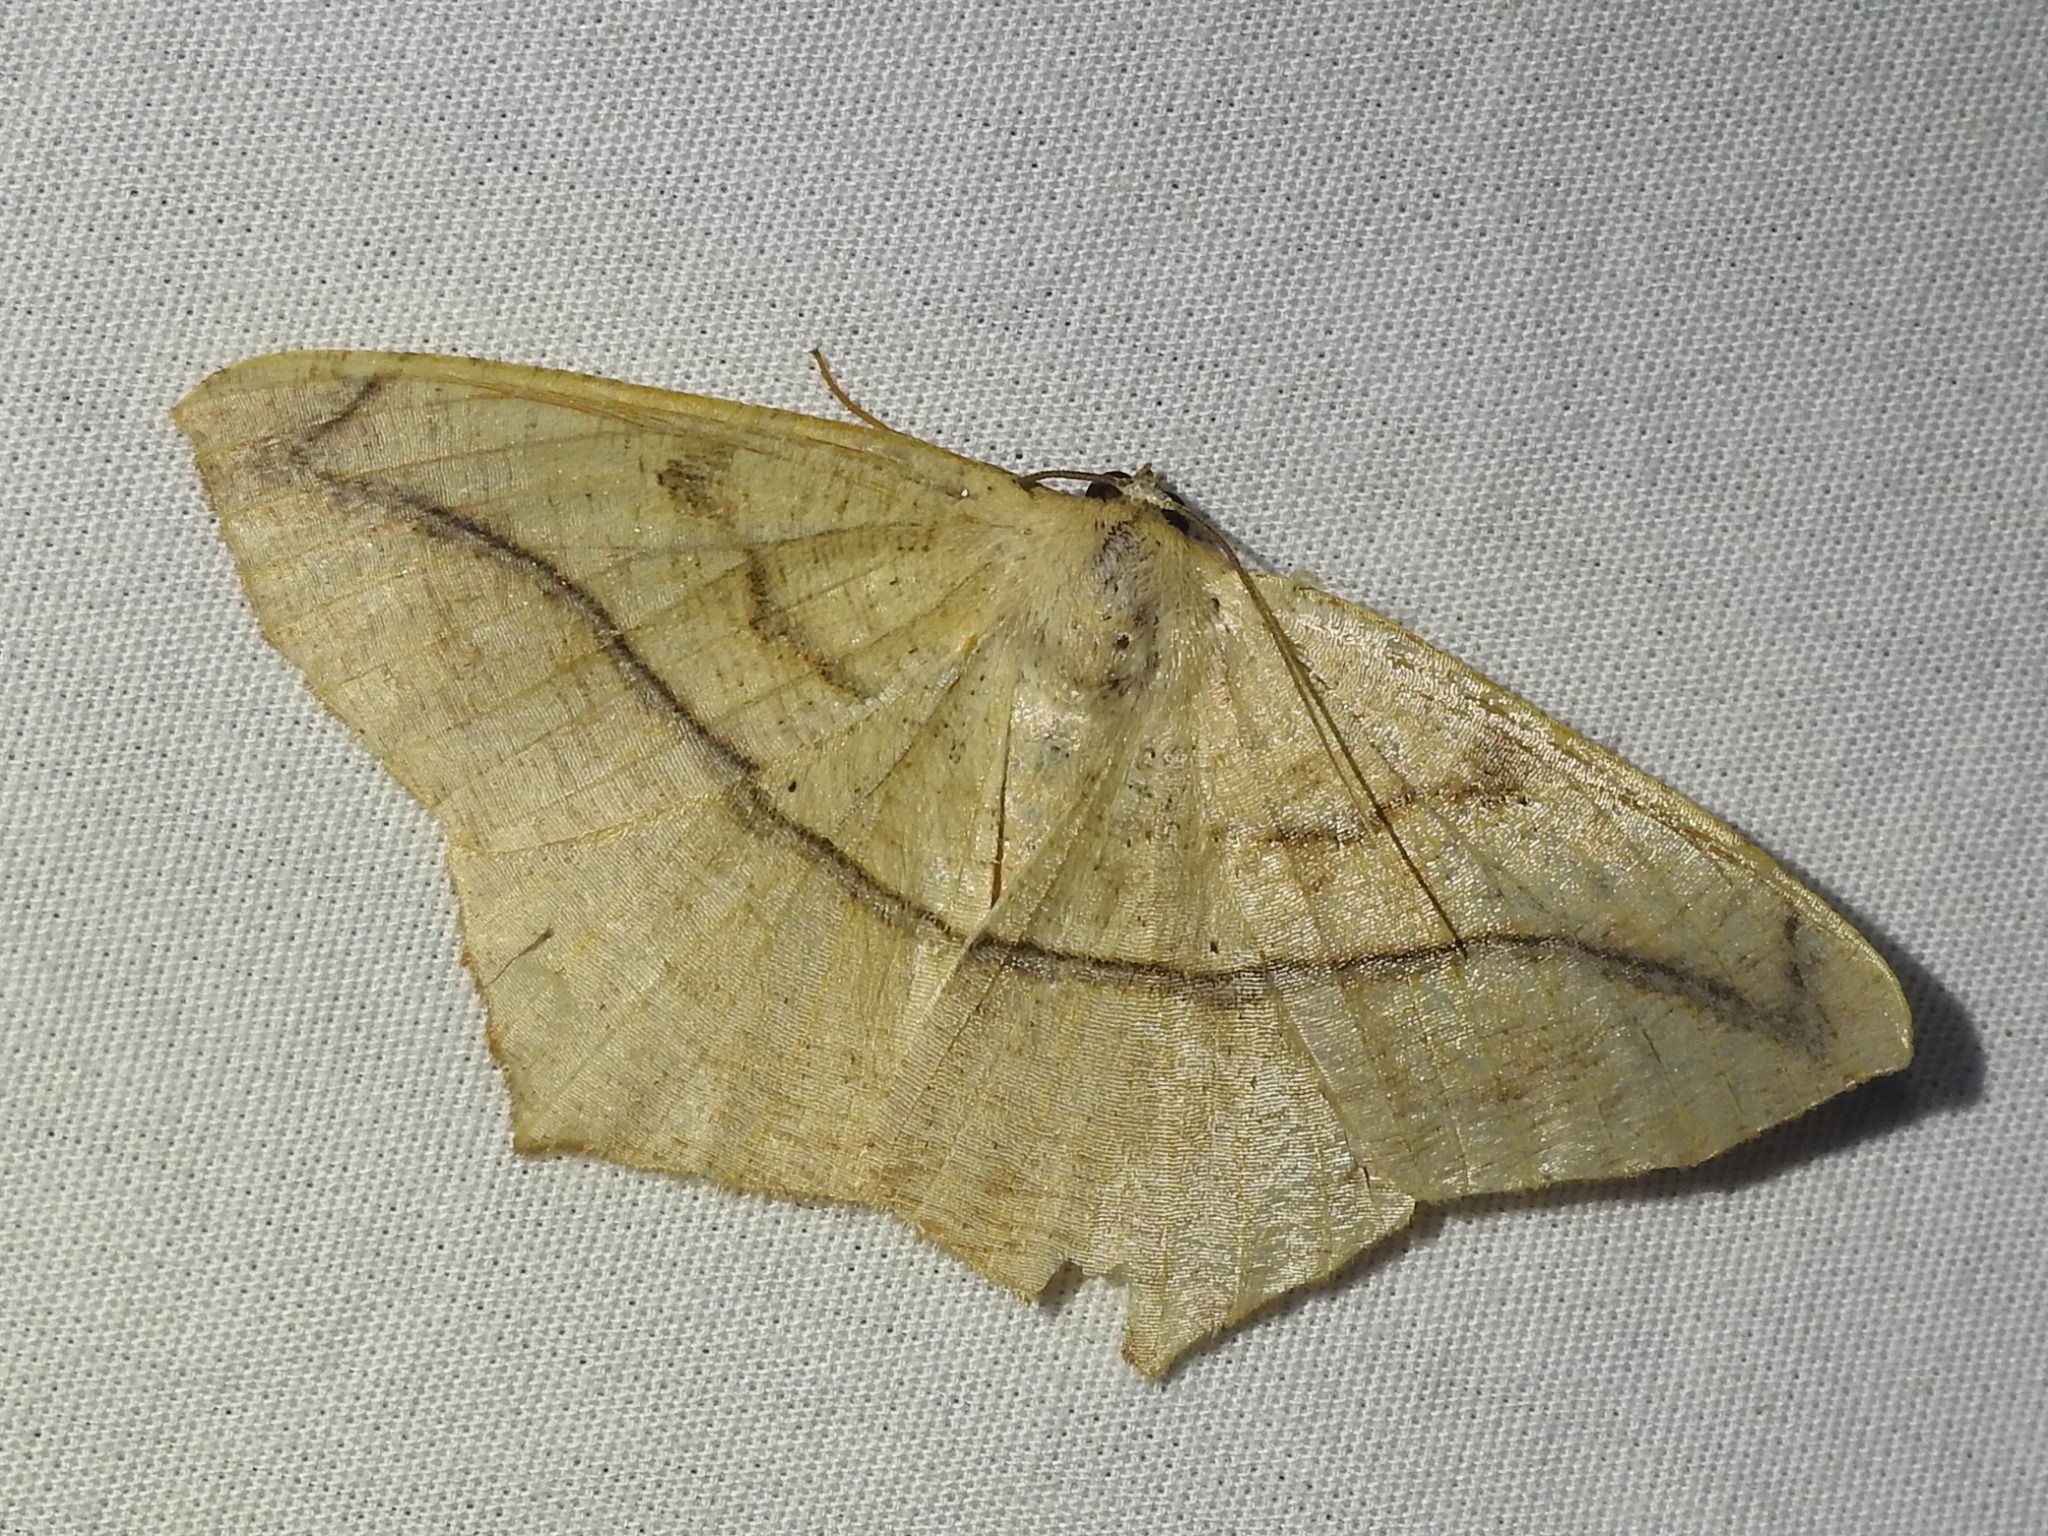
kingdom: Animalia
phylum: Arthropoda
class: Insecta
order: Lepidoptera
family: Geometridae
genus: Prochoerodes
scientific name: Prochoerodes lineola
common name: Large maple spanworm
